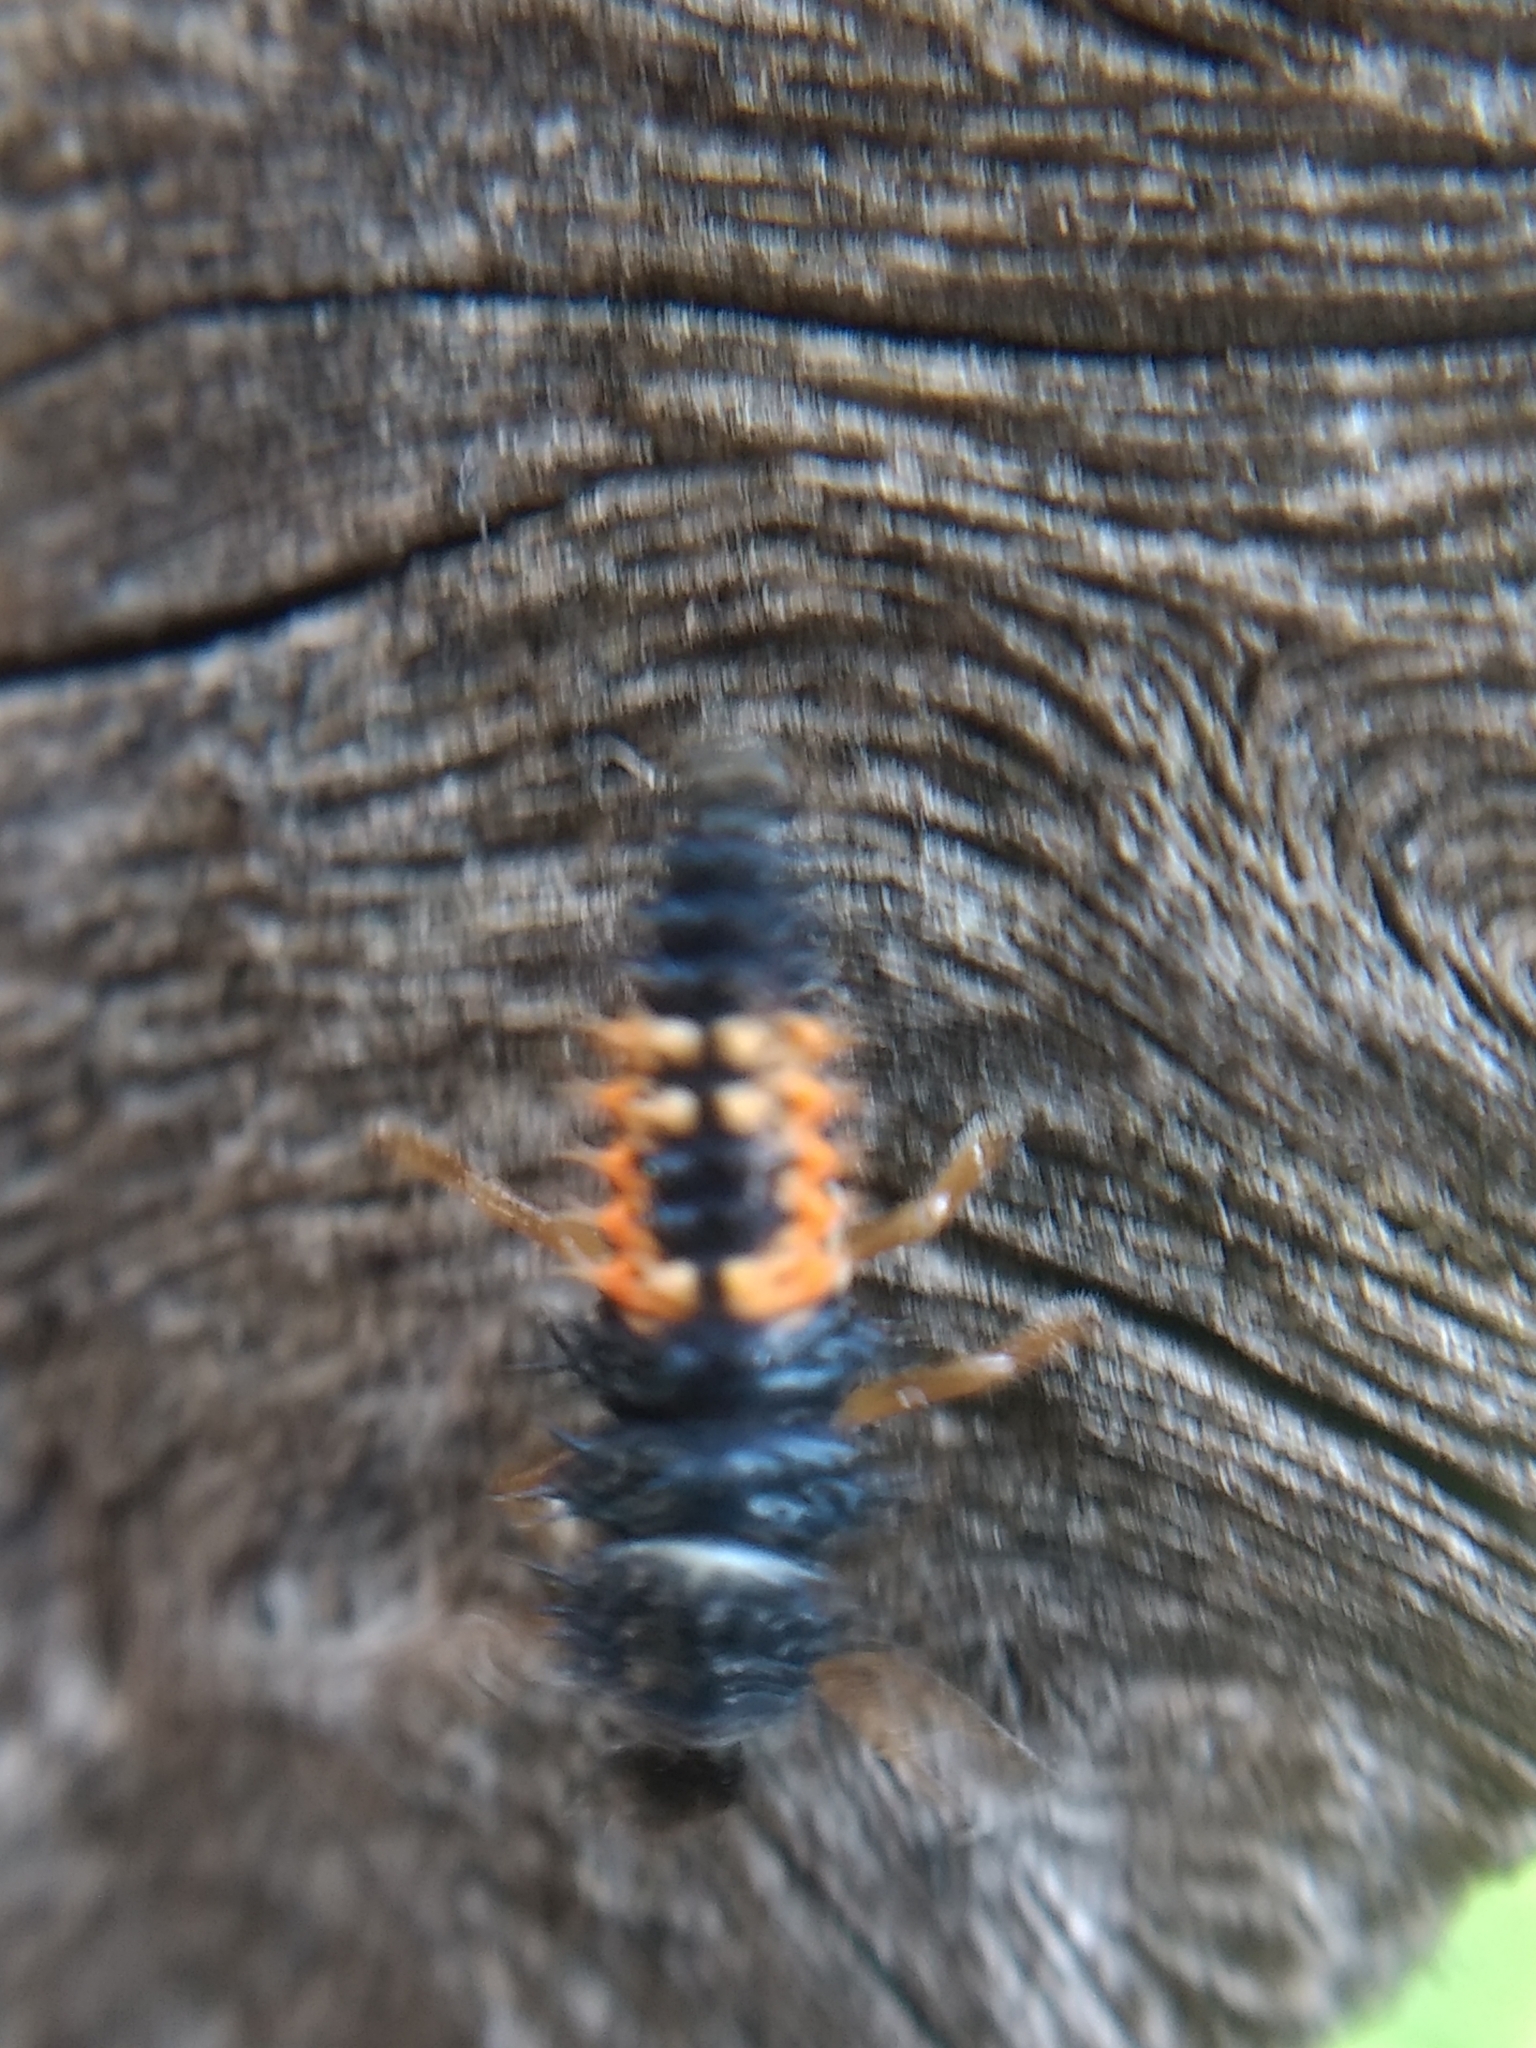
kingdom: Animalia
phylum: Arthropoda
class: Insecta
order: Coleoptera
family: Coccinellidae
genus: Harmonia
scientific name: Harmonia axyridis
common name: Harlequin ladybird
